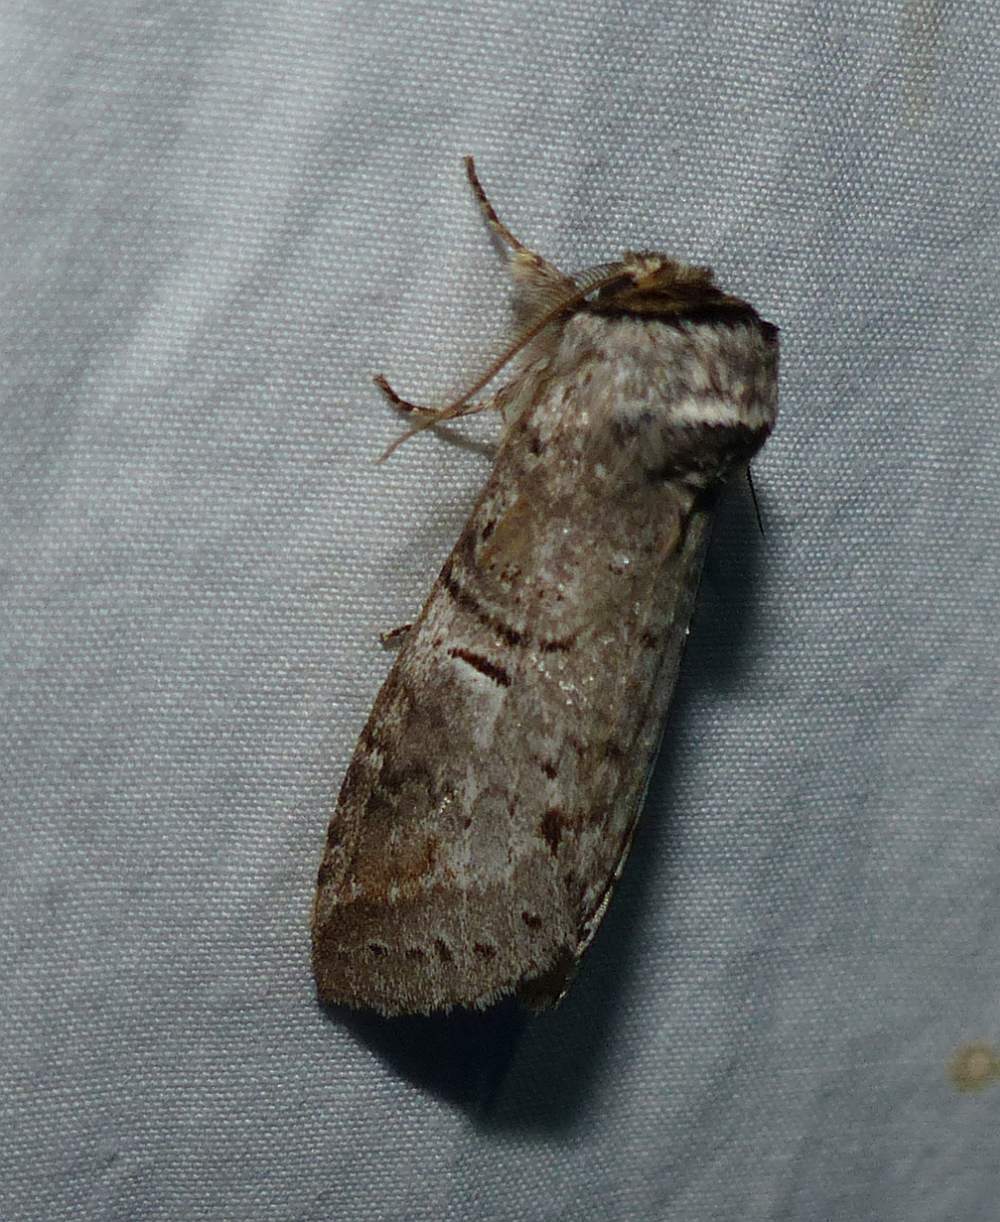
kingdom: Animalia
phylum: Arthropoda
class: Insecta
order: Lepidoptera
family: Notodontidae
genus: Ellida
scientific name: Ellida caniplaga
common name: Linden prominent
